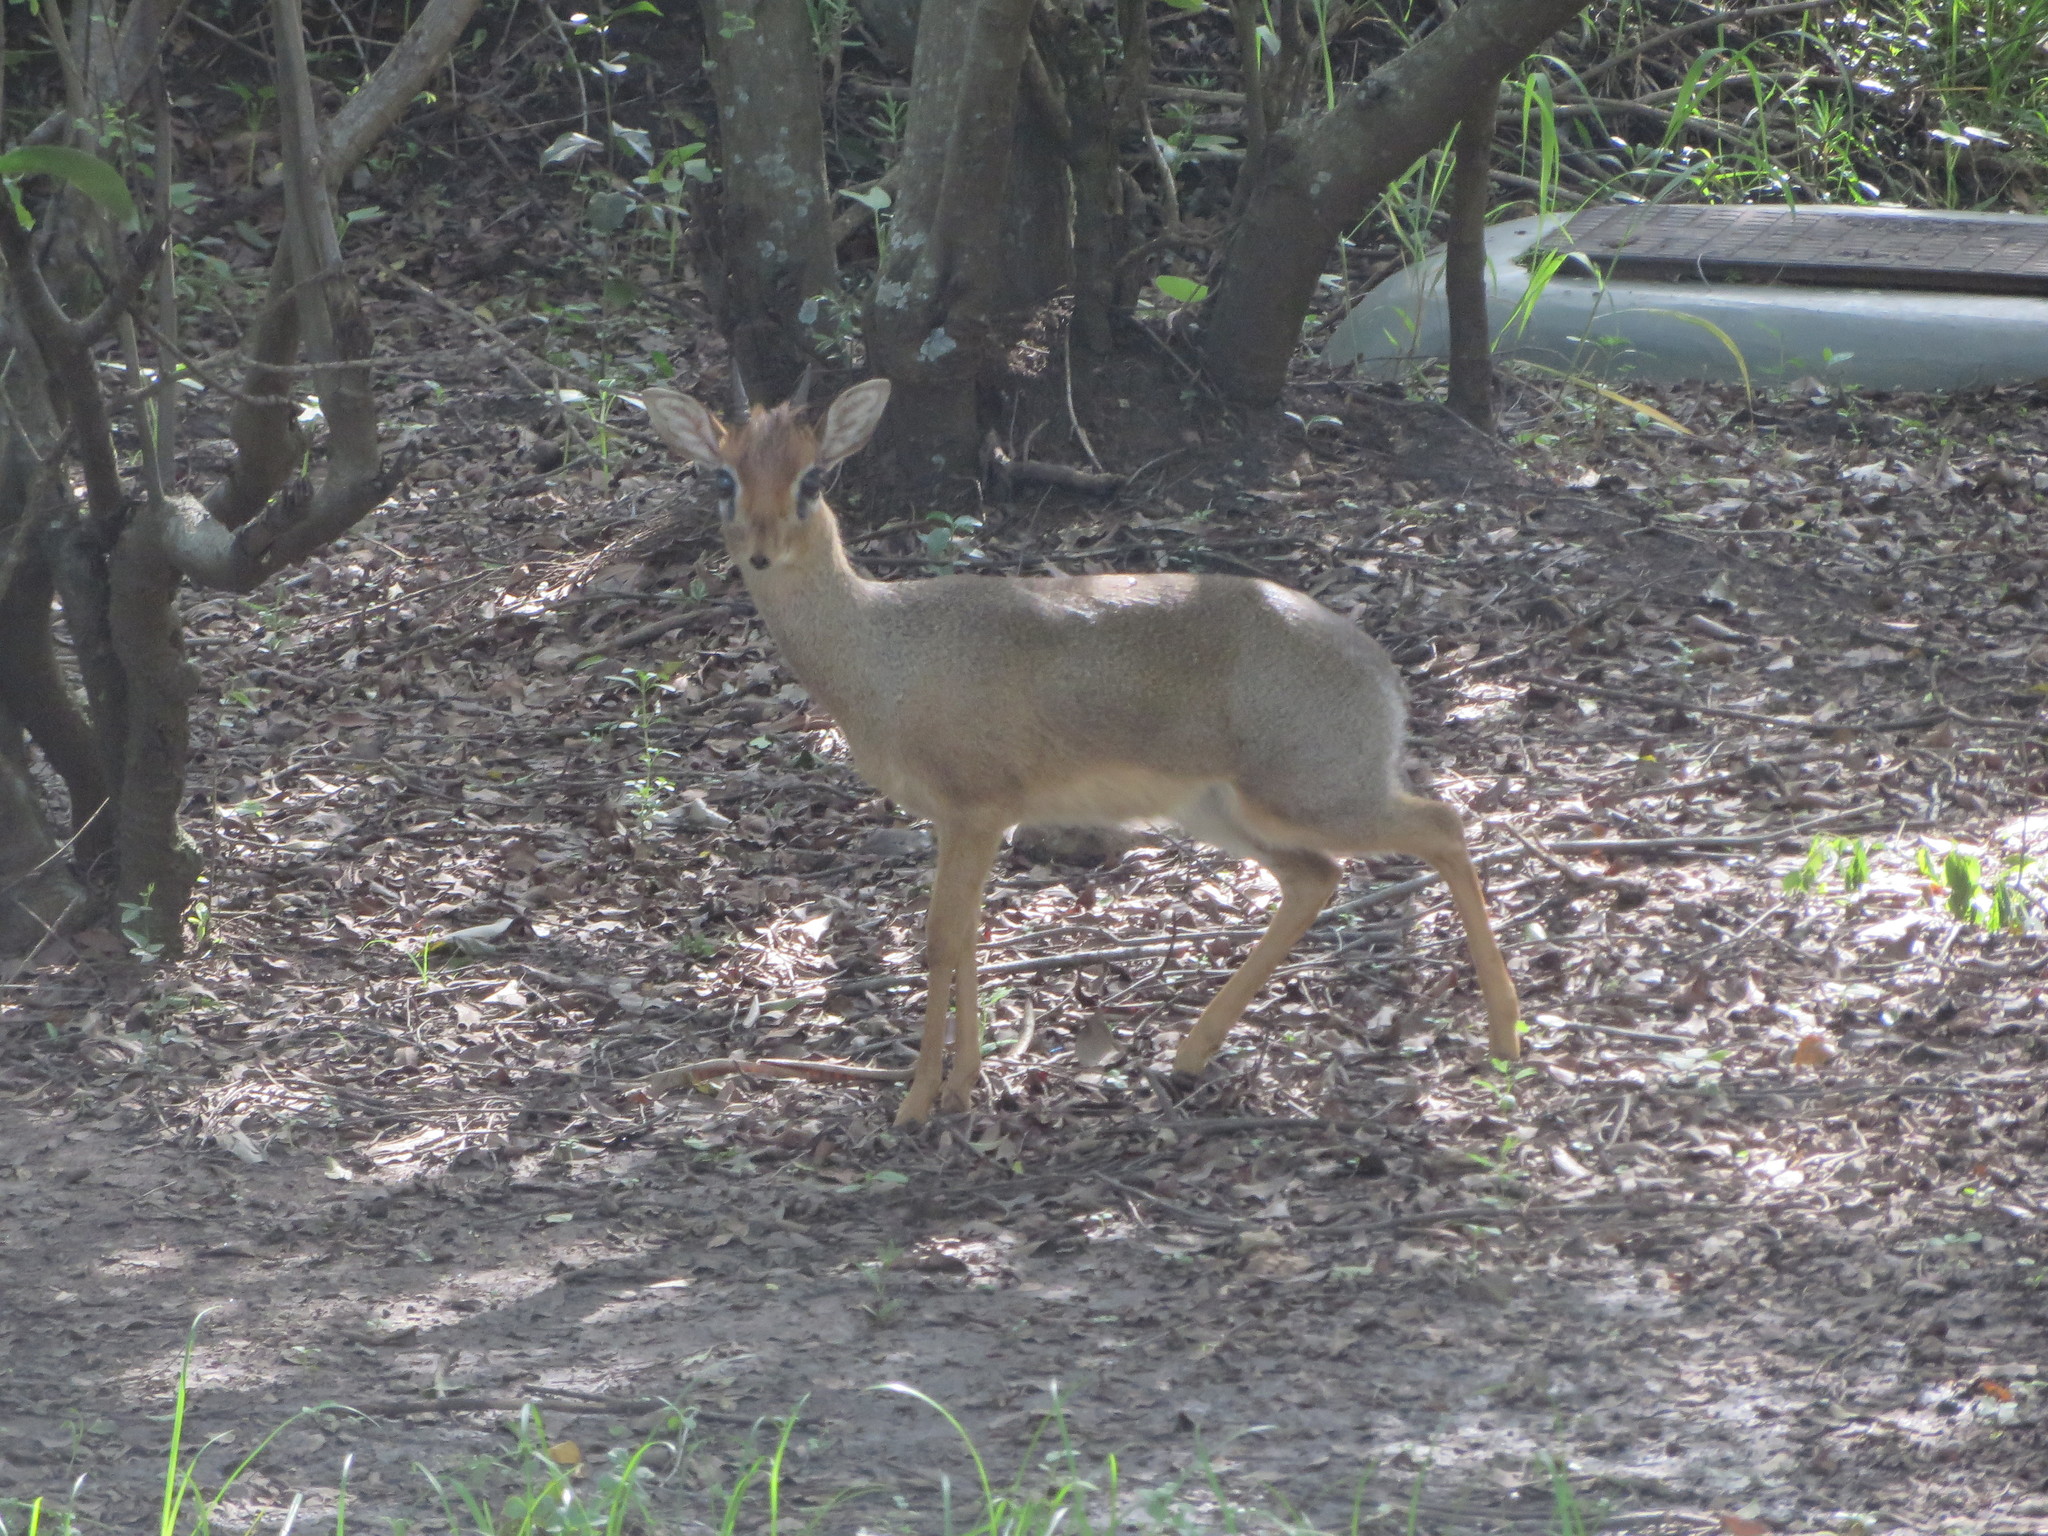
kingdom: Animalia
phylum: Chordata
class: Mammalia
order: Artiodactyla
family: Bovidae
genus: Madoqua
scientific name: Madoqua
